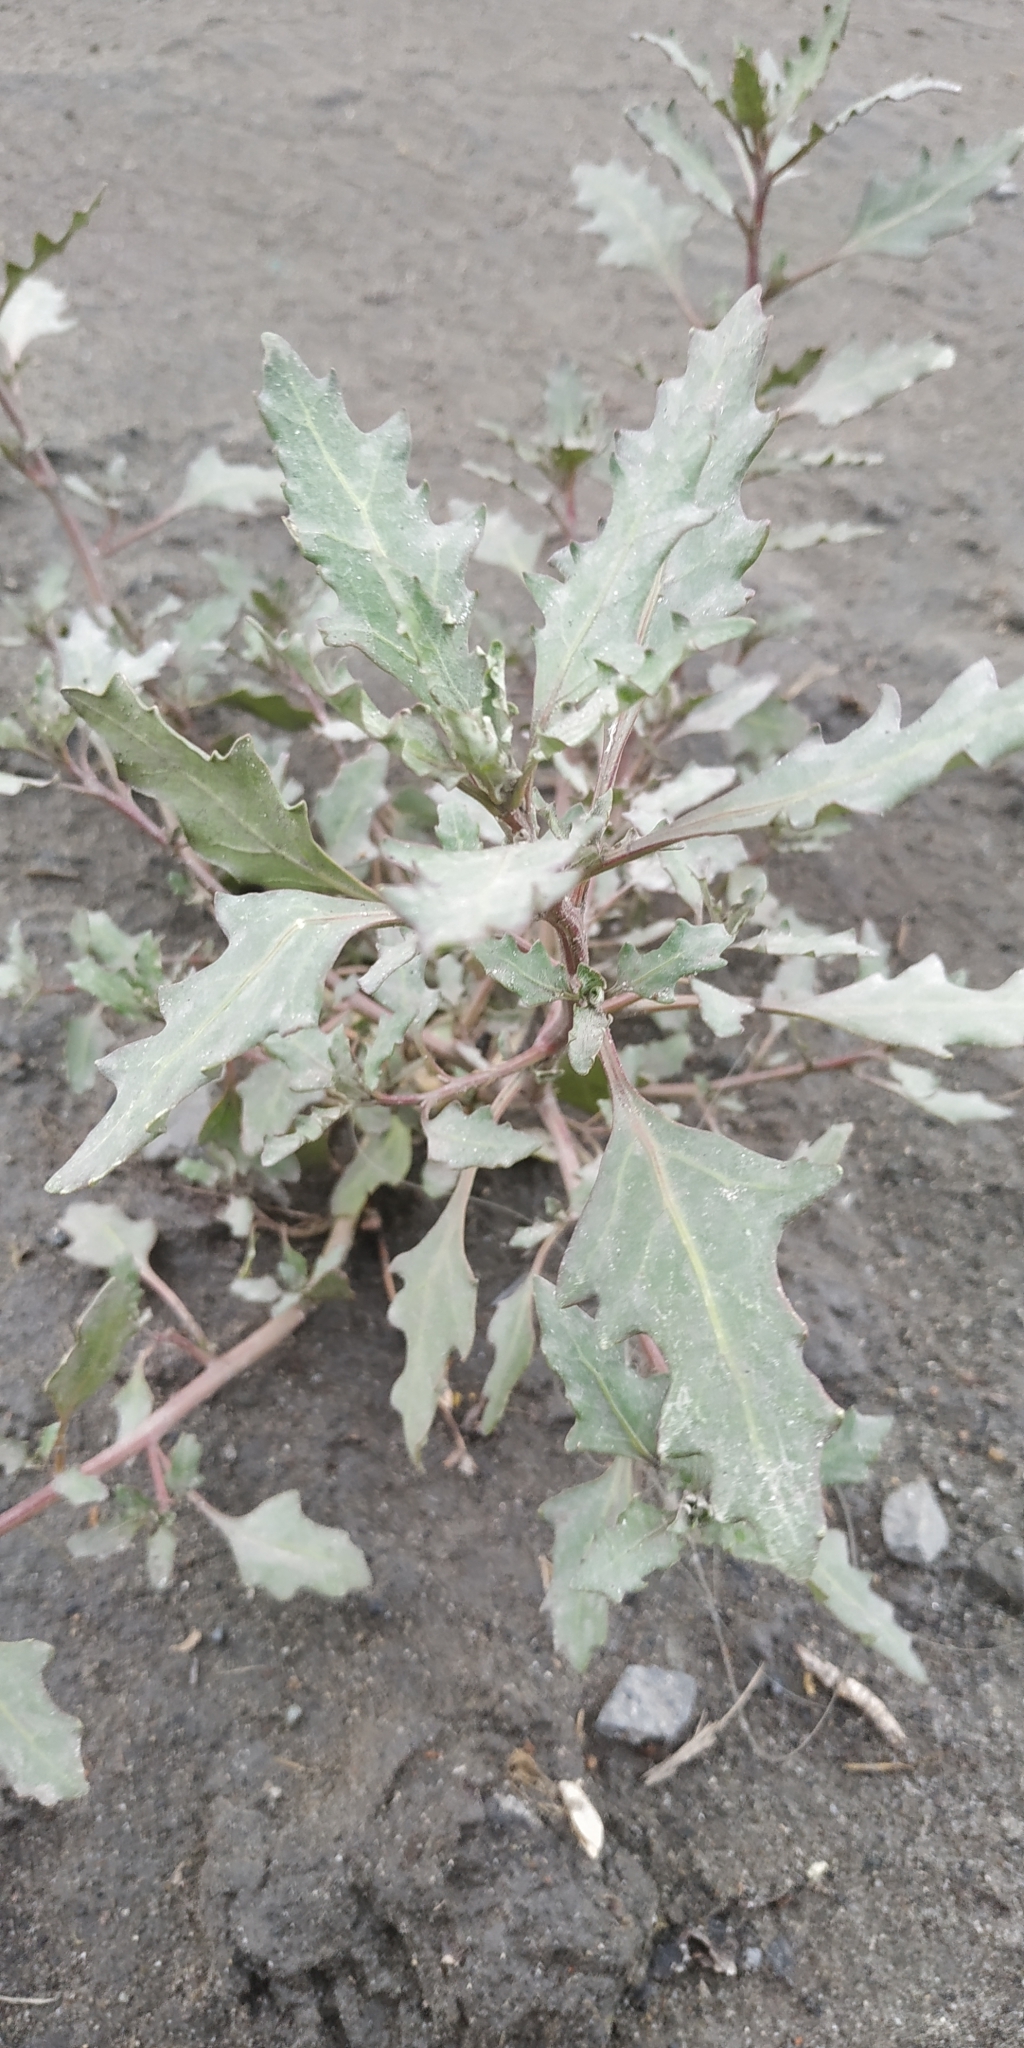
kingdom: Plantae
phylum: Tracheophyta
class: Magnoliopsida
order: Caryophyllales
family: Amaranthaceae
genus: Oxybasis
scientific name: Oxybasis glauca
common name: Glaucous goosefoot
